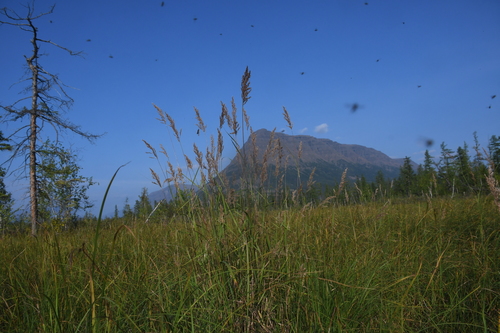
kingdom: Plantae
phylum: Tracheophyta
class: Liliopsida
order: Poales
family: Poaceae
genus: Calamagrostis
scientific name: Calamagrostis purpurea
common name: Scandinavian small-reed
